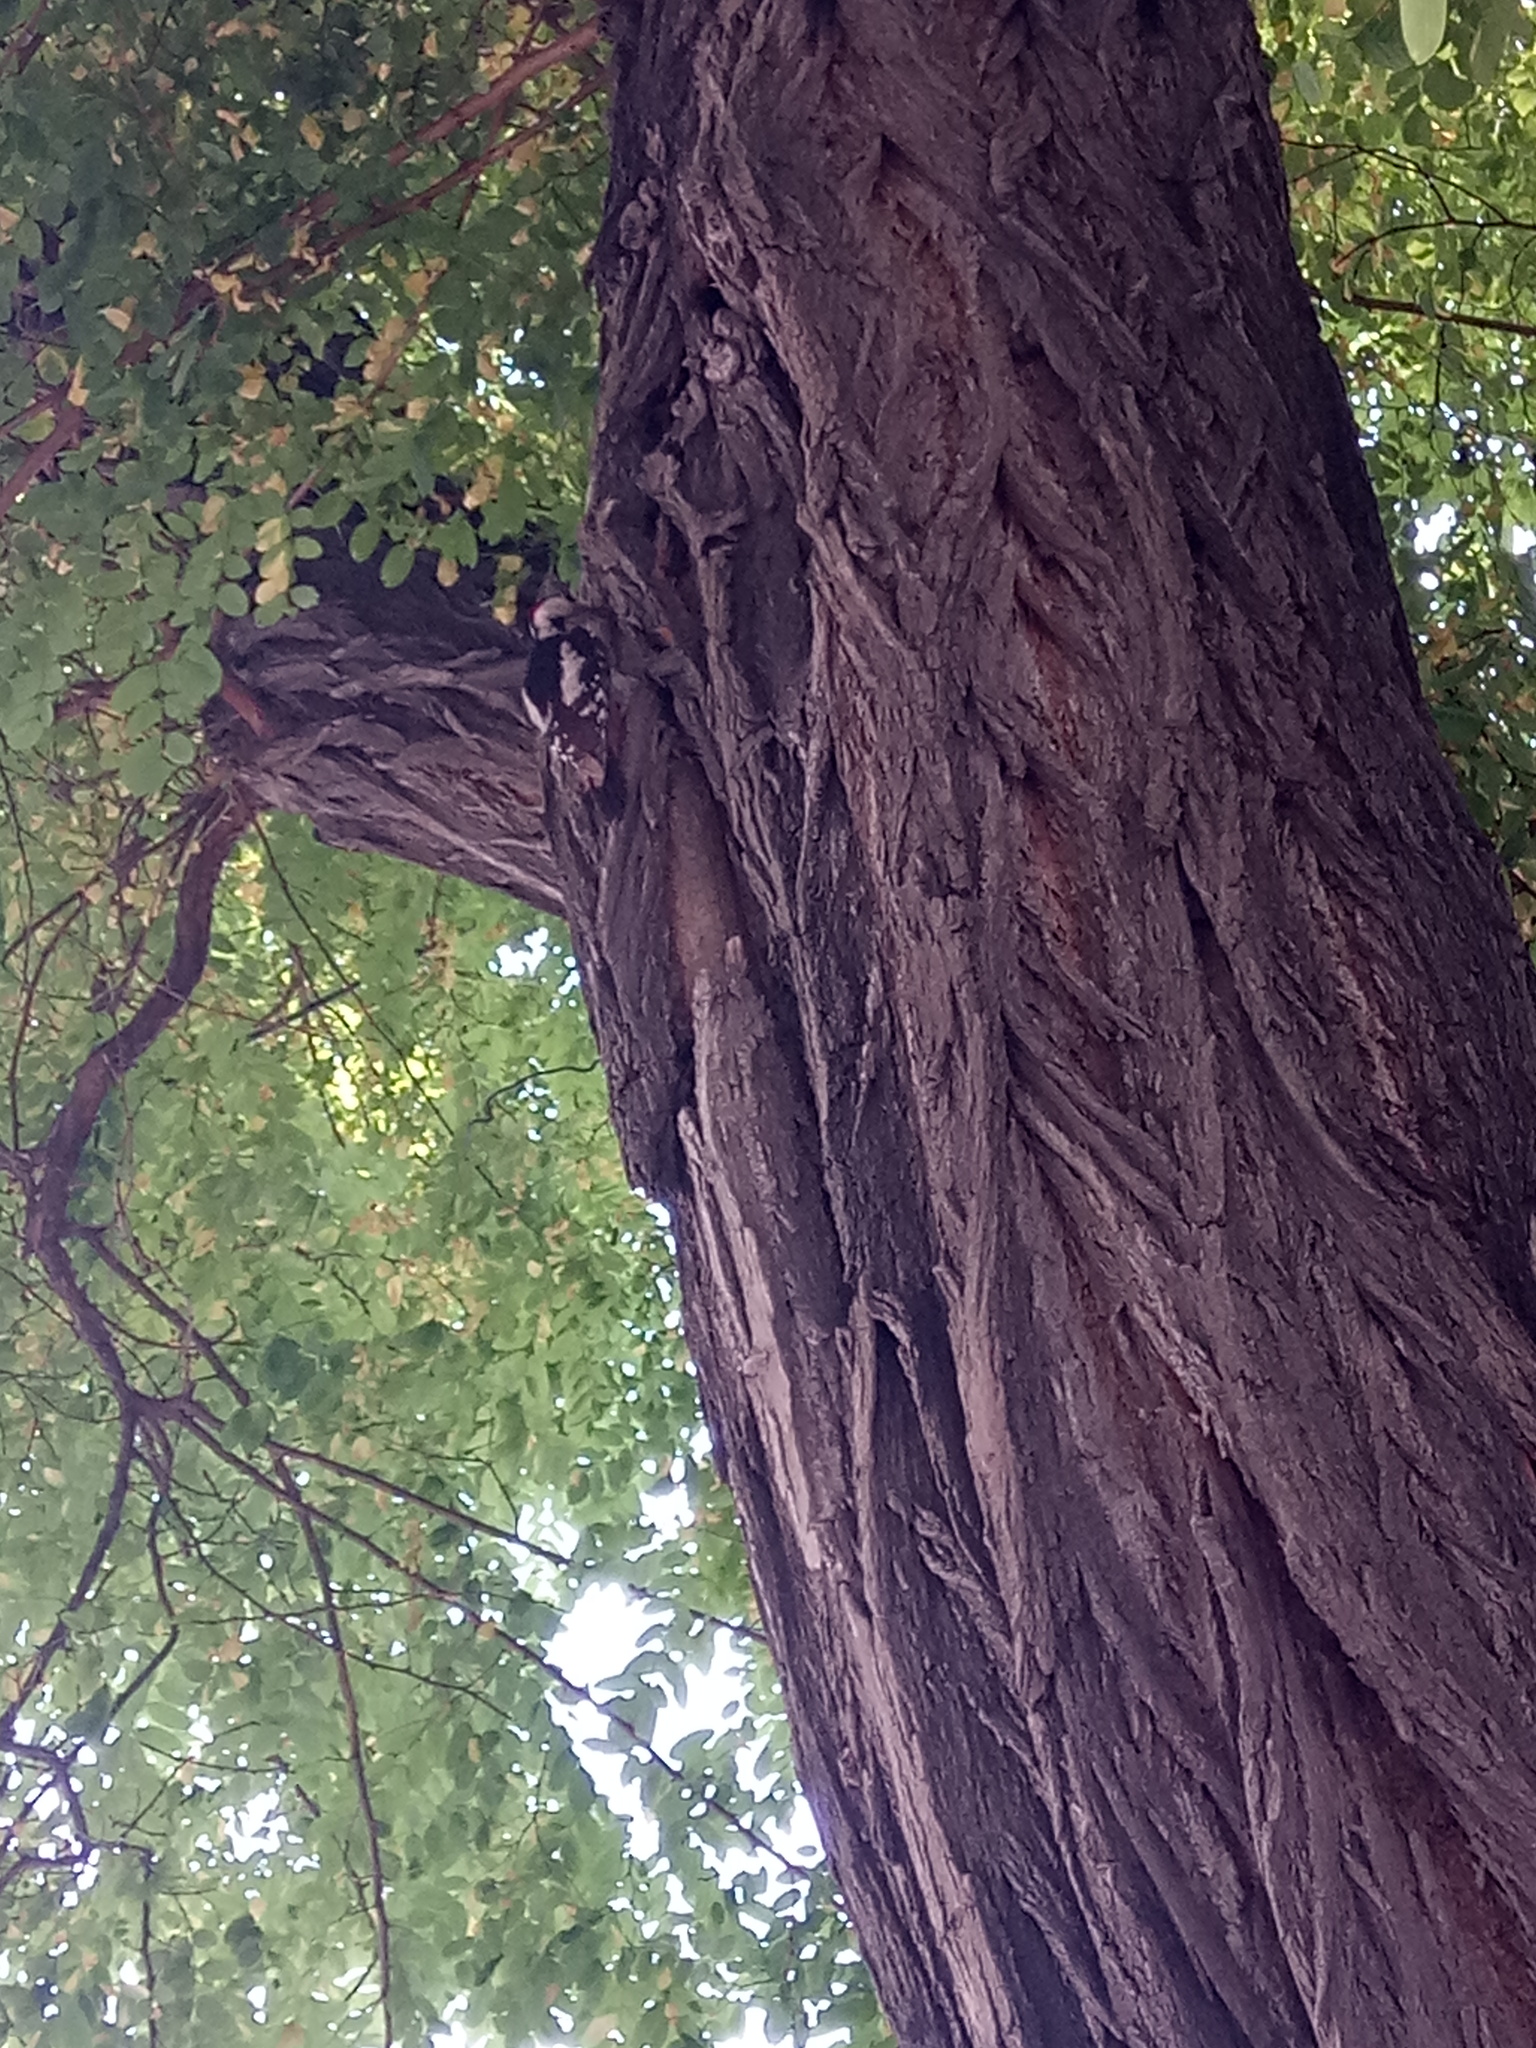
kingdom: Animalia
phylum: Chordata
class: Aves
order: Piciformes
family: Picidae
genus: Dendrocopos
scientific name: Dendrocopos syriacus
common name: Syrian woodpecker
